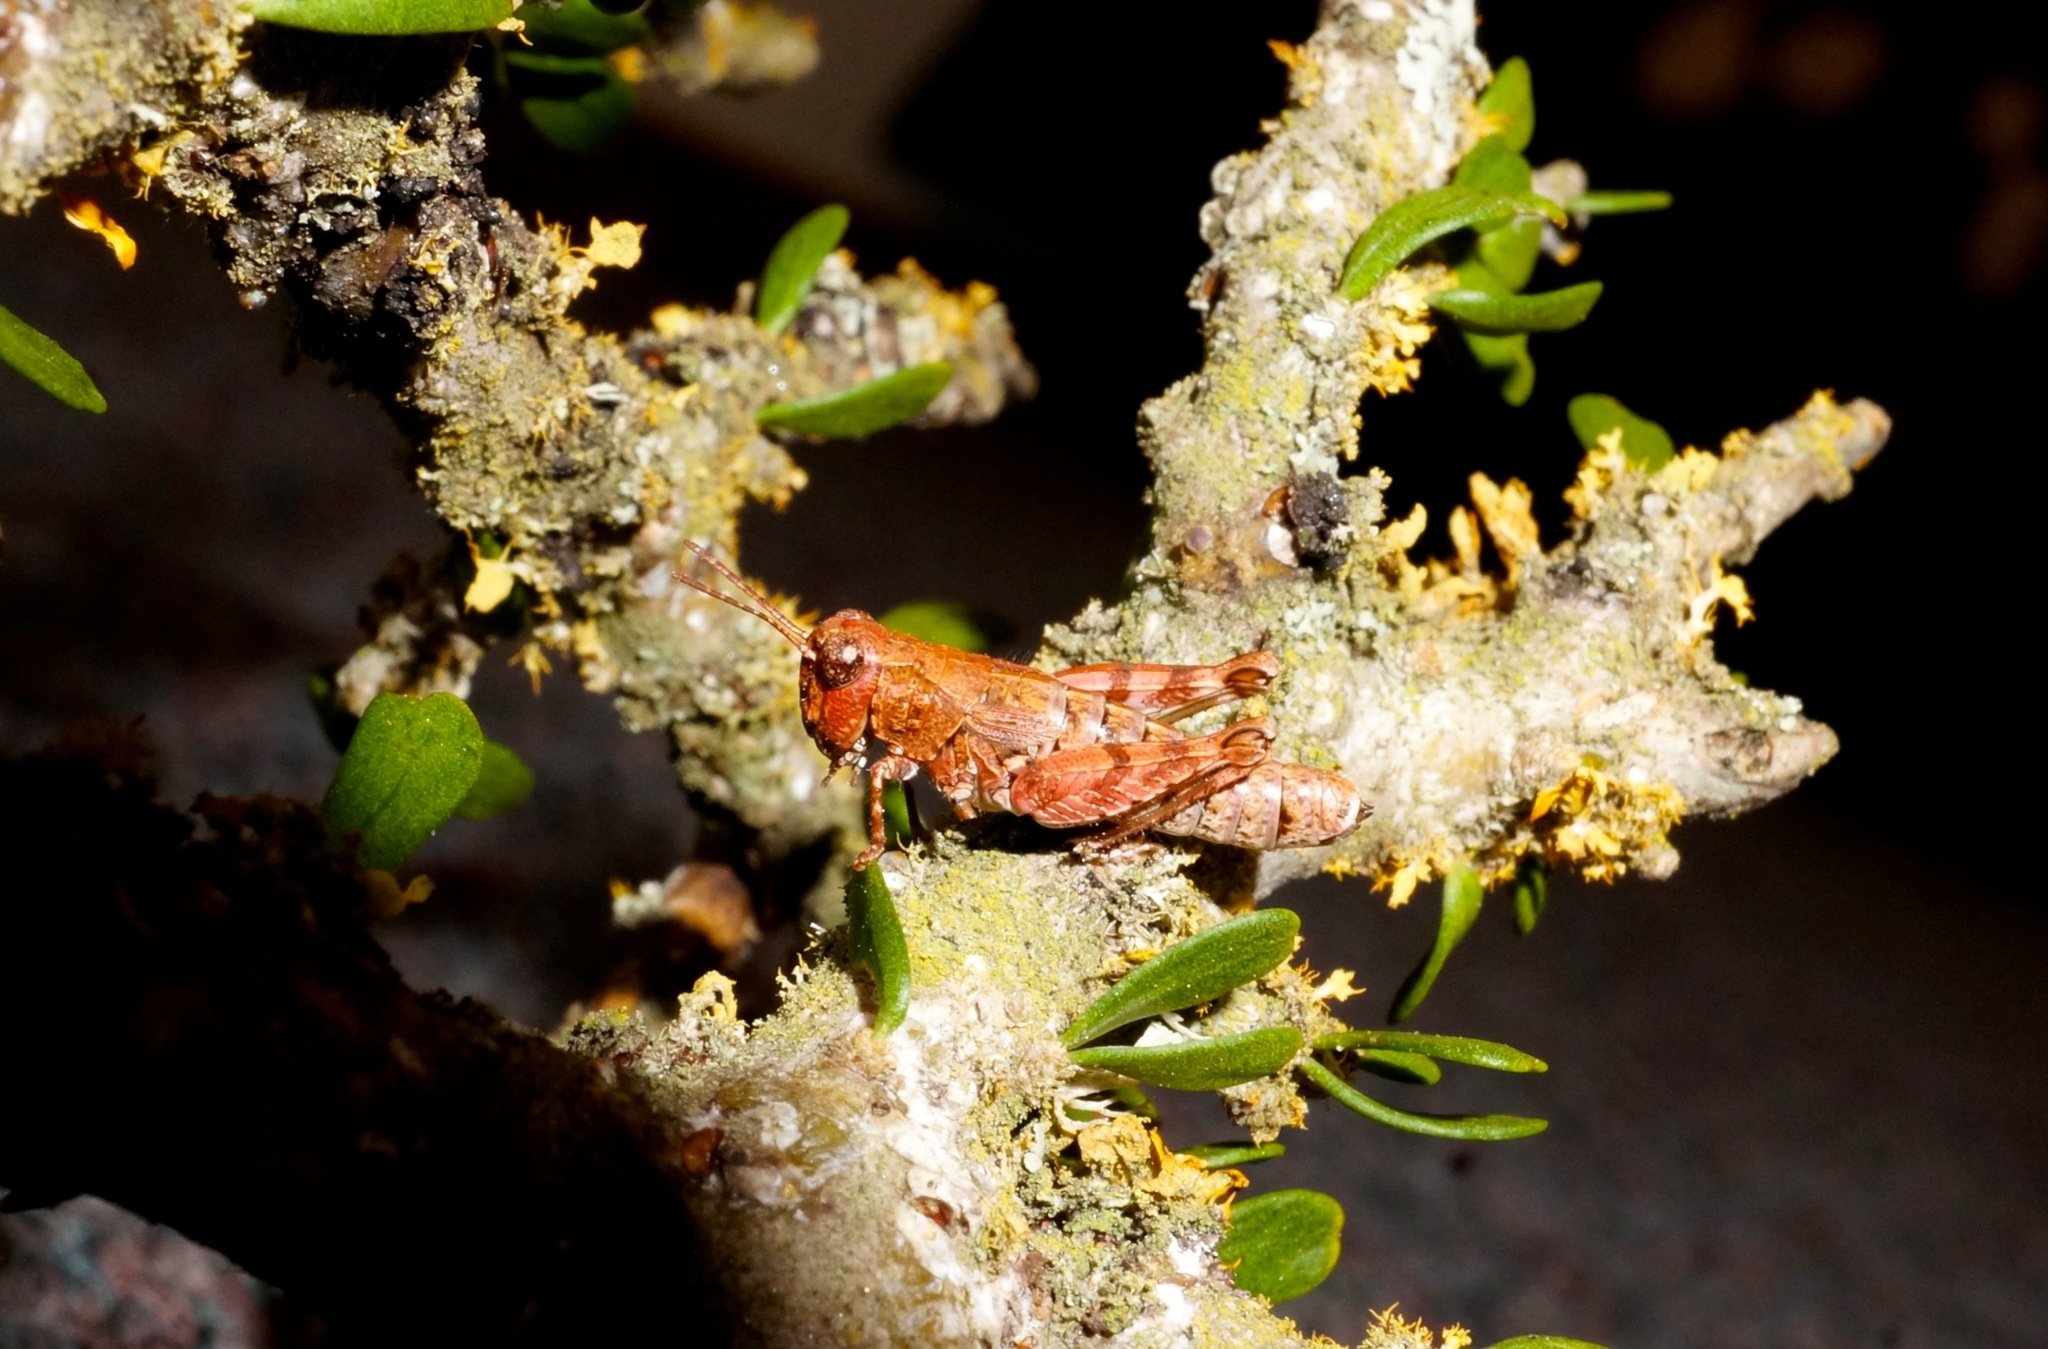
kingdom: Animalia
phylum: Arthropoda
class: Insecta
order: Orthoptera
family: Acrididae
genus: Phaulacridium
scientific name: Phaulacridium otagoense
